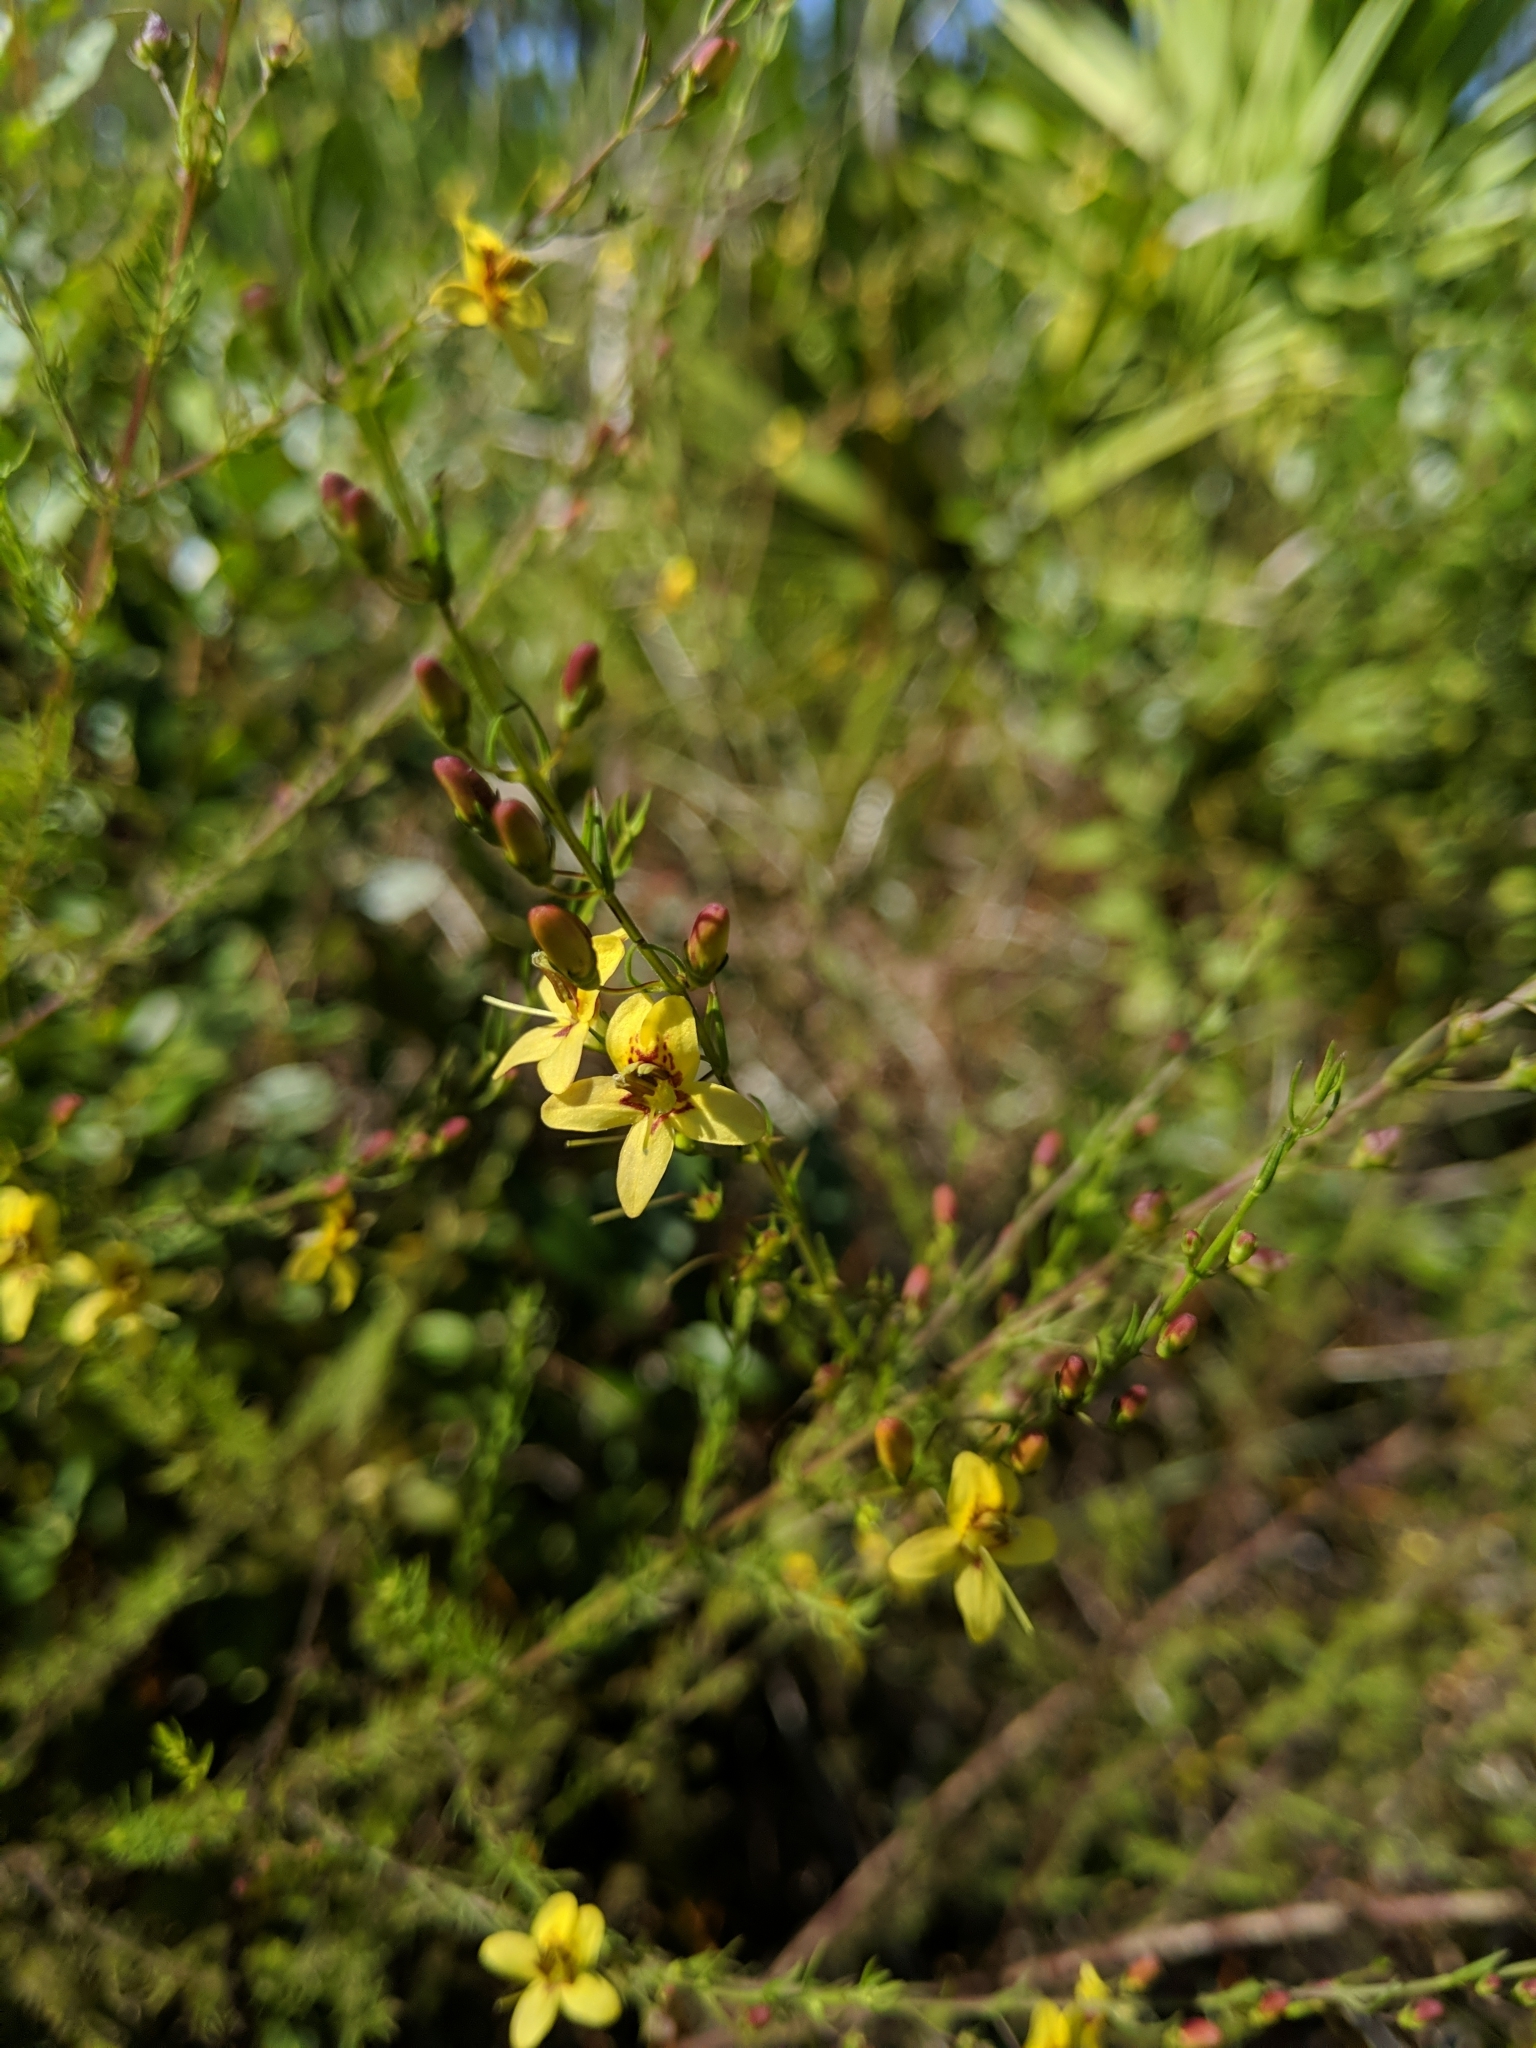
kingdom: Plantae
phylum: Tracheophyta
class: Magnoliopsida
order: Lamiales
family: Orobanchaceae
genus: Seymeria
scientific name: Seymeria cassioides
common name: Yaupon black-senna
